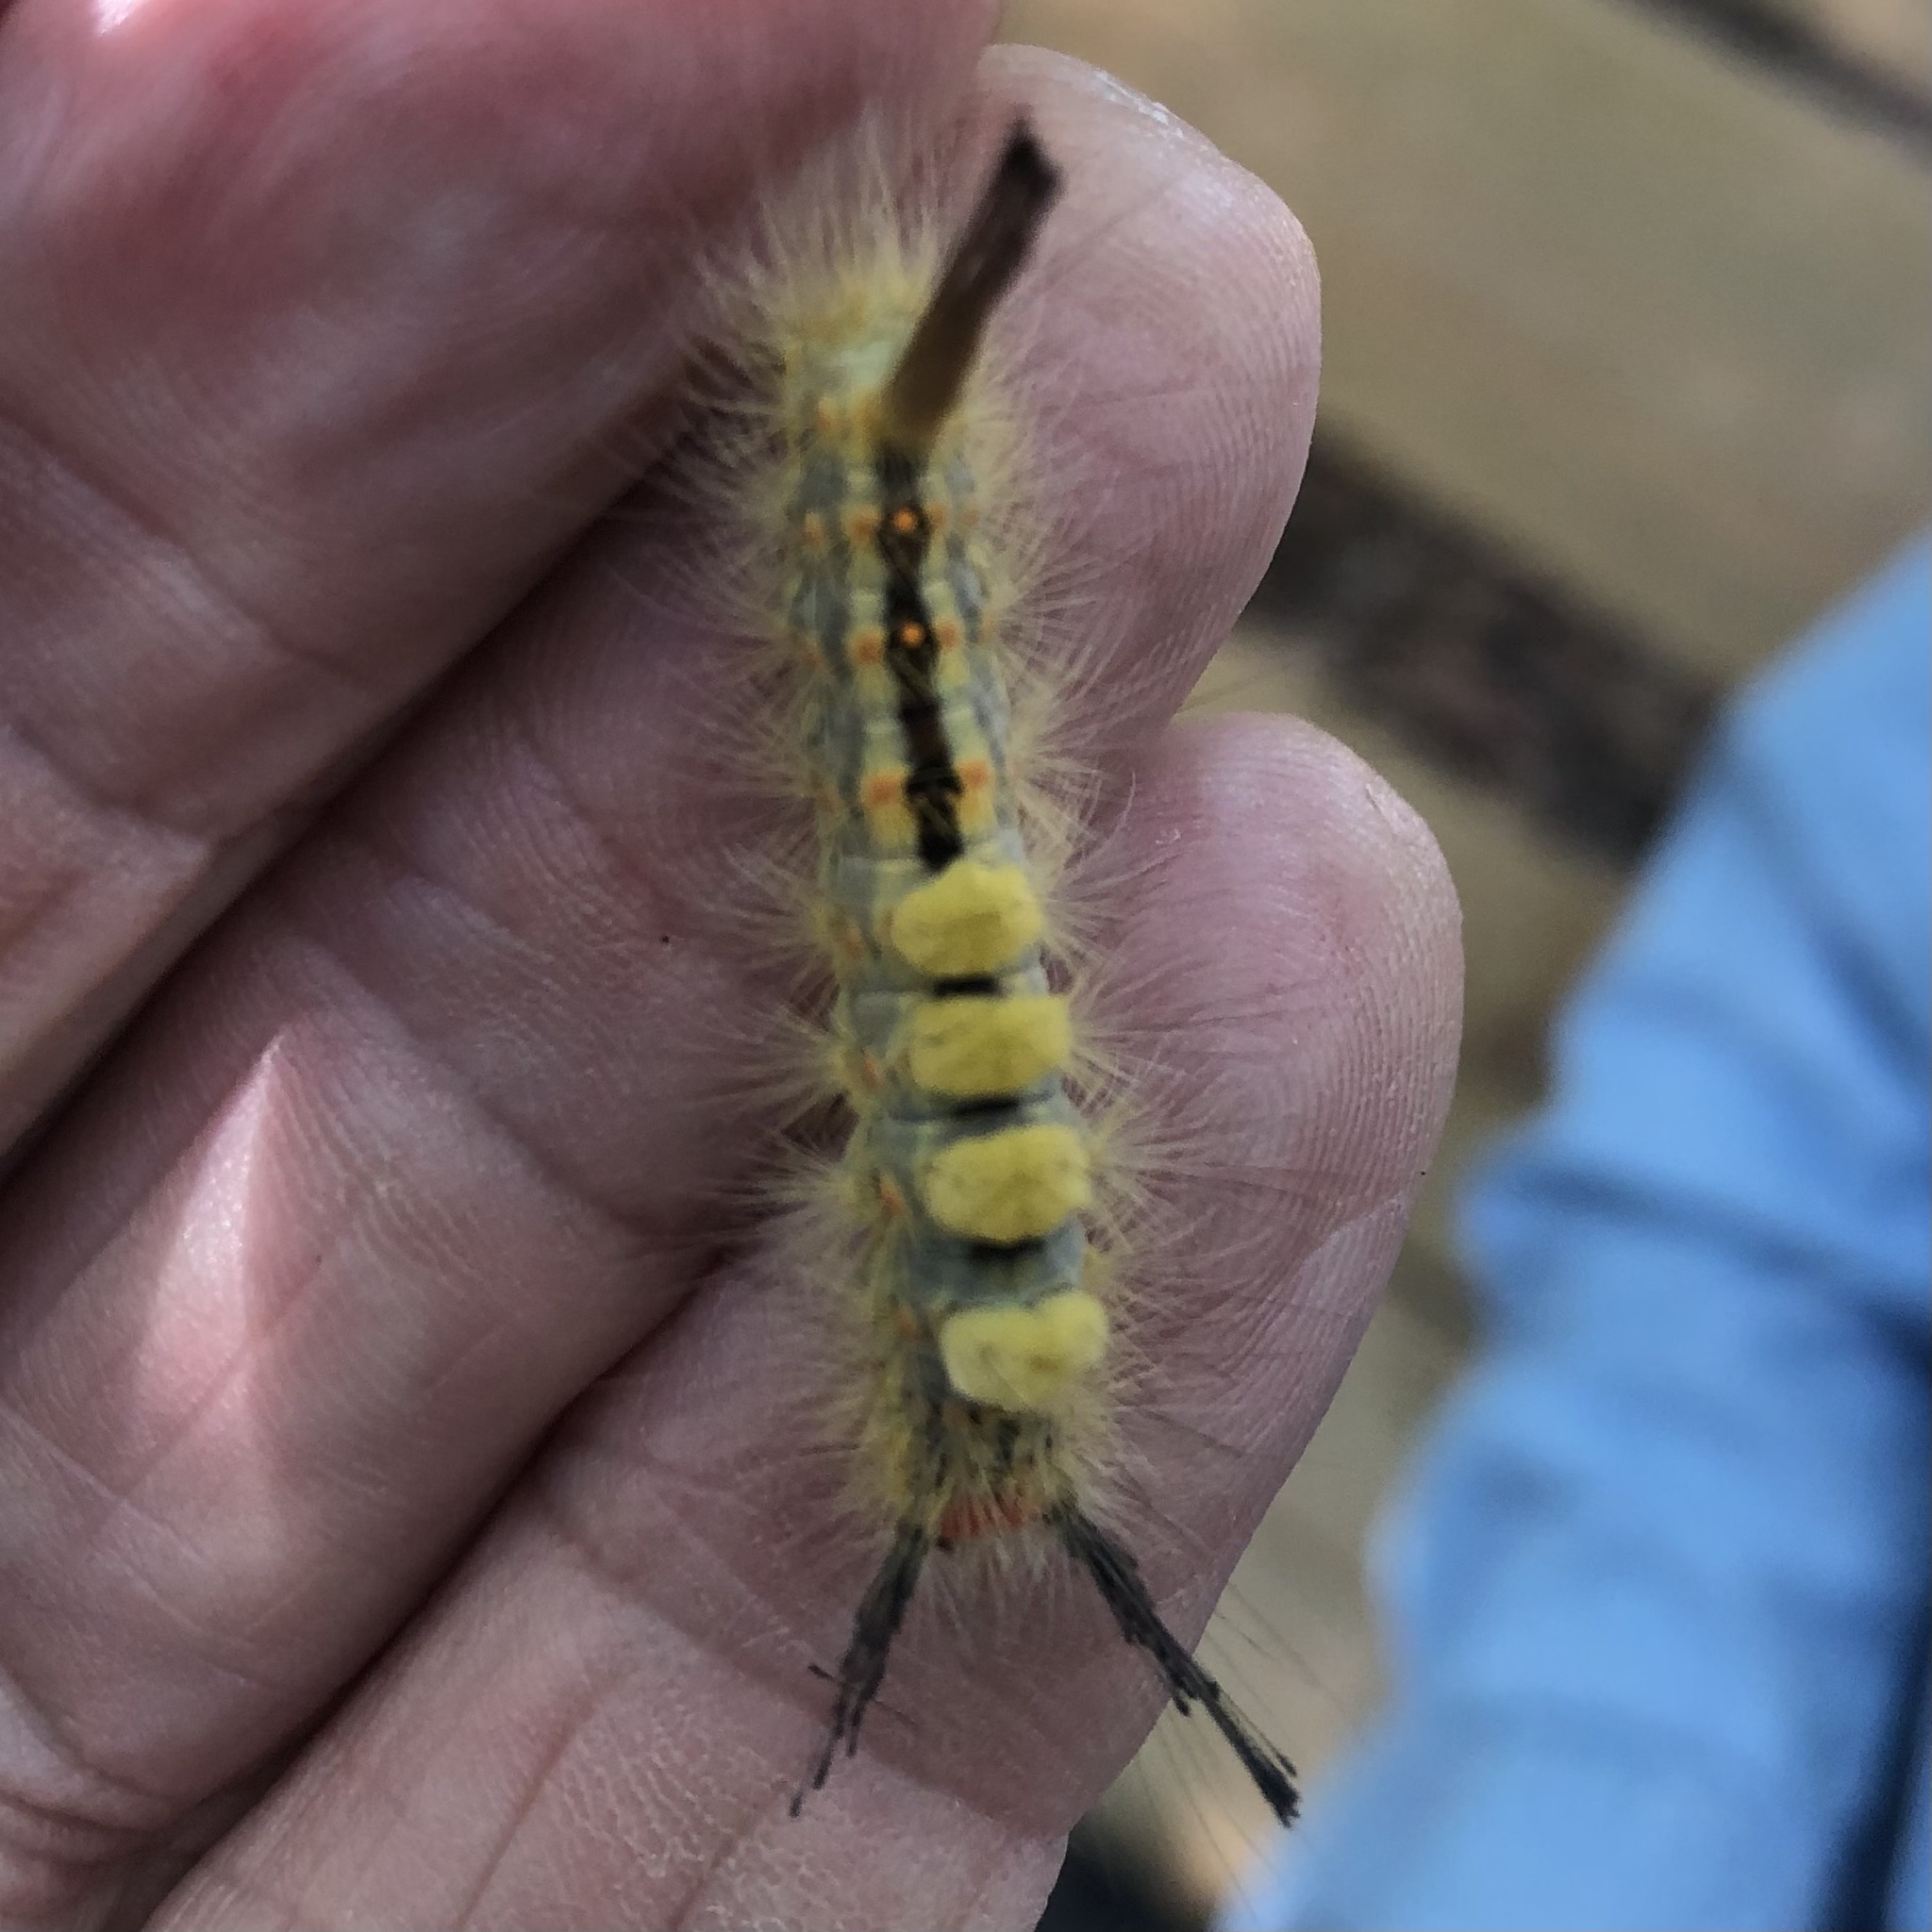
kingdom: Animalia
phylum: Arthropoda
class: Insecta
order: Lepidoptera
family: Erebidae
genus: Orgyia
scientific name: Orgyia detrita
